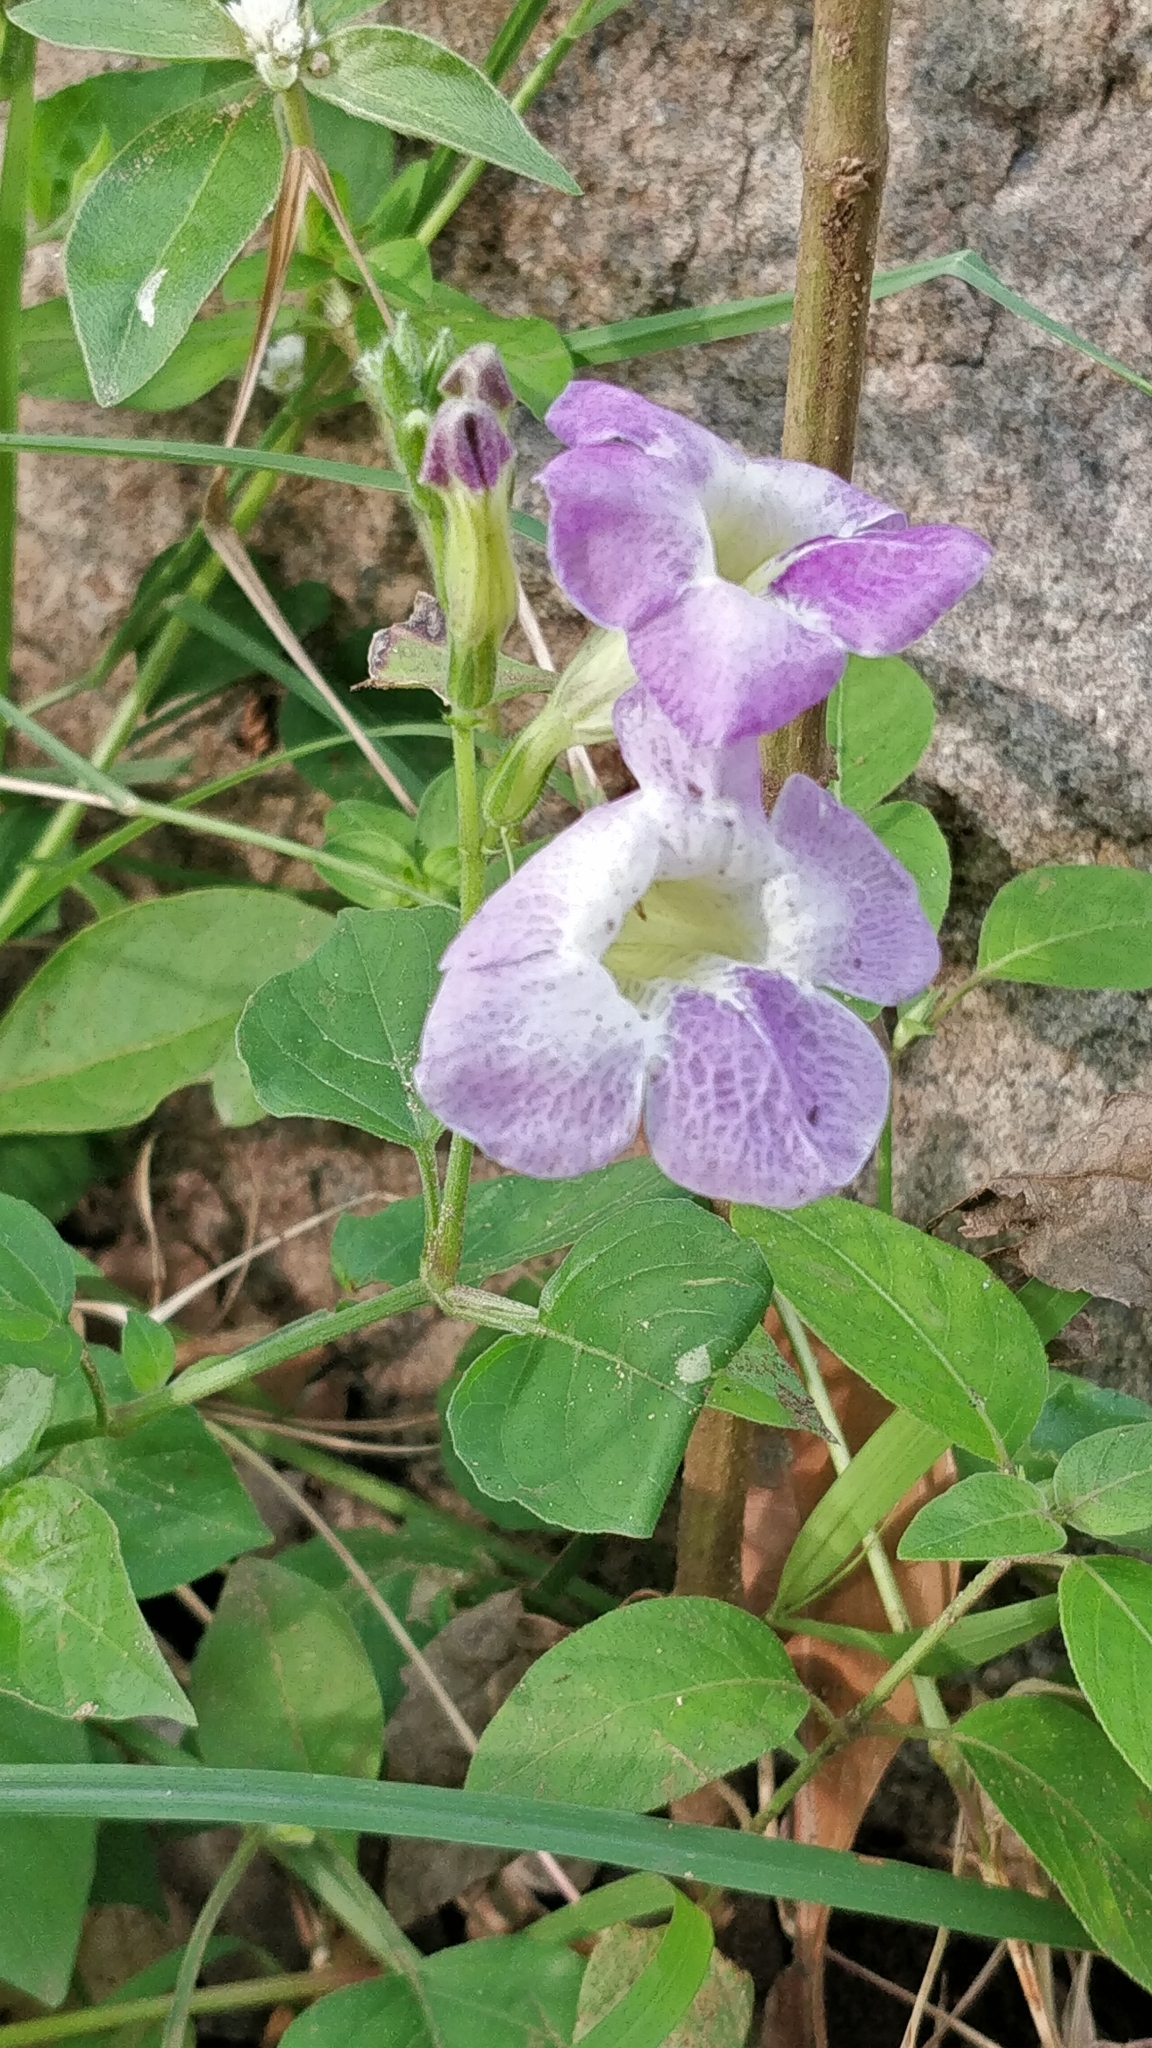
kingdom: Plantae
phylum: Tracheophyta
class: Magnoliopsida
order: Lamiales
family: Acanthaceae
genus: Asystasia
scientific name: Asystasia gangetica
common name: Chinese violet
